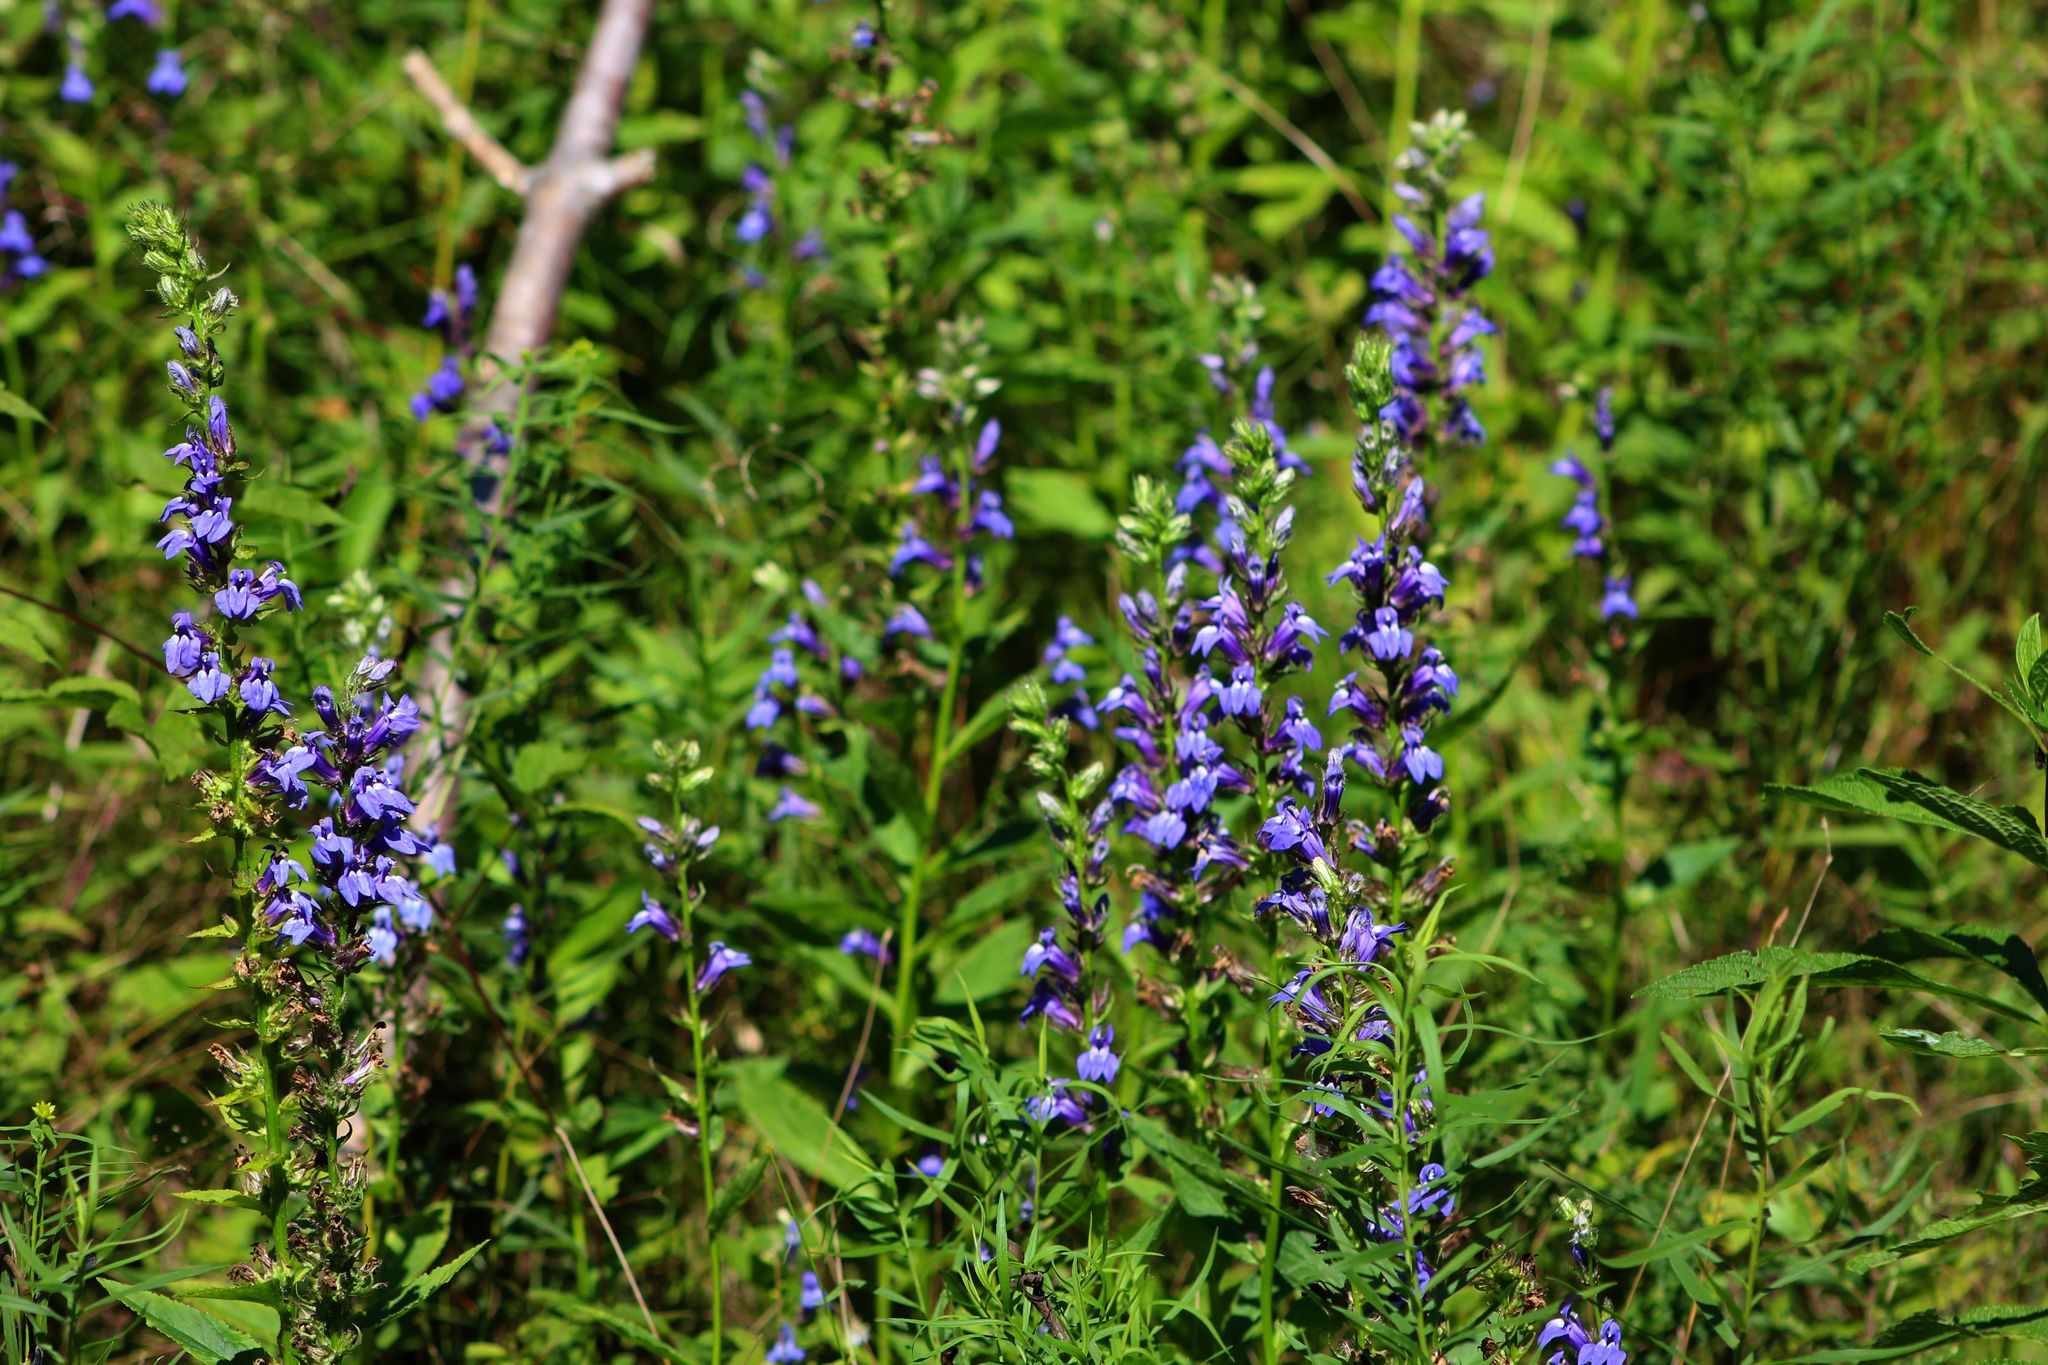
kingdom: Plantae
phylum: Tracheophyta
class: Magnoliopsida
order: Asterales
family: Campanulaceae
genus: Lobelia
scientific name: Lobelia siphilitica
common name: Great lobelia
